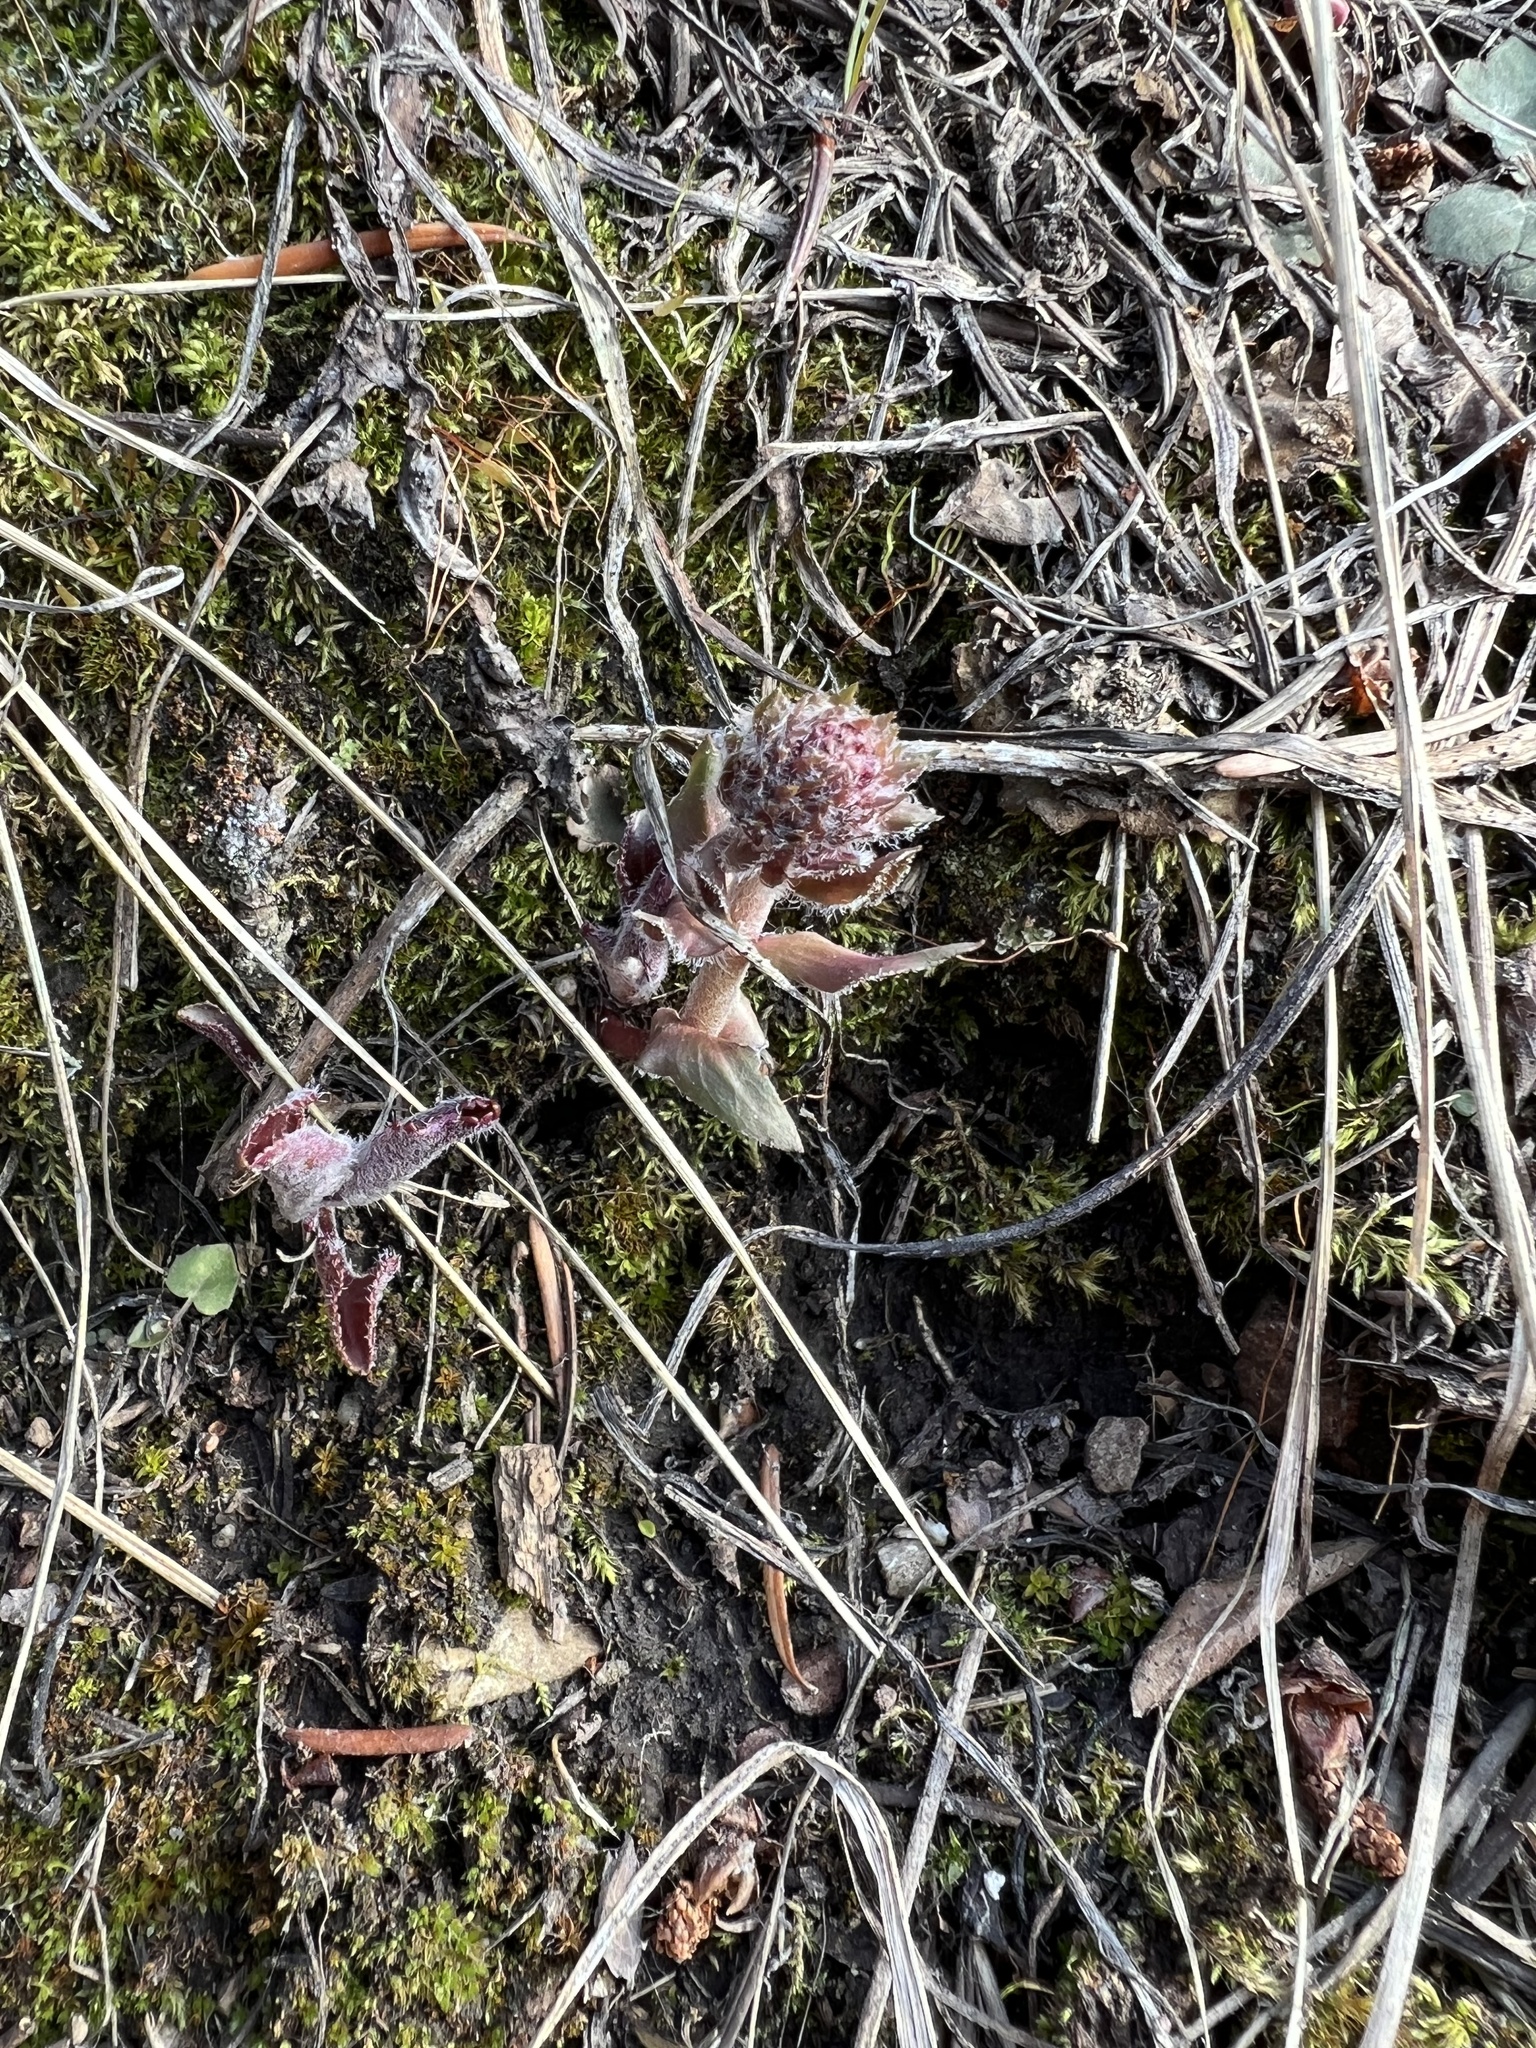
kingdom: Plantae
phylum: Tracheophyta
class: Magnoliopsida
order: Lamiales
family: Plantaginaceae
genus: Synthyris
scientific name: Synthyris wyomingensis
